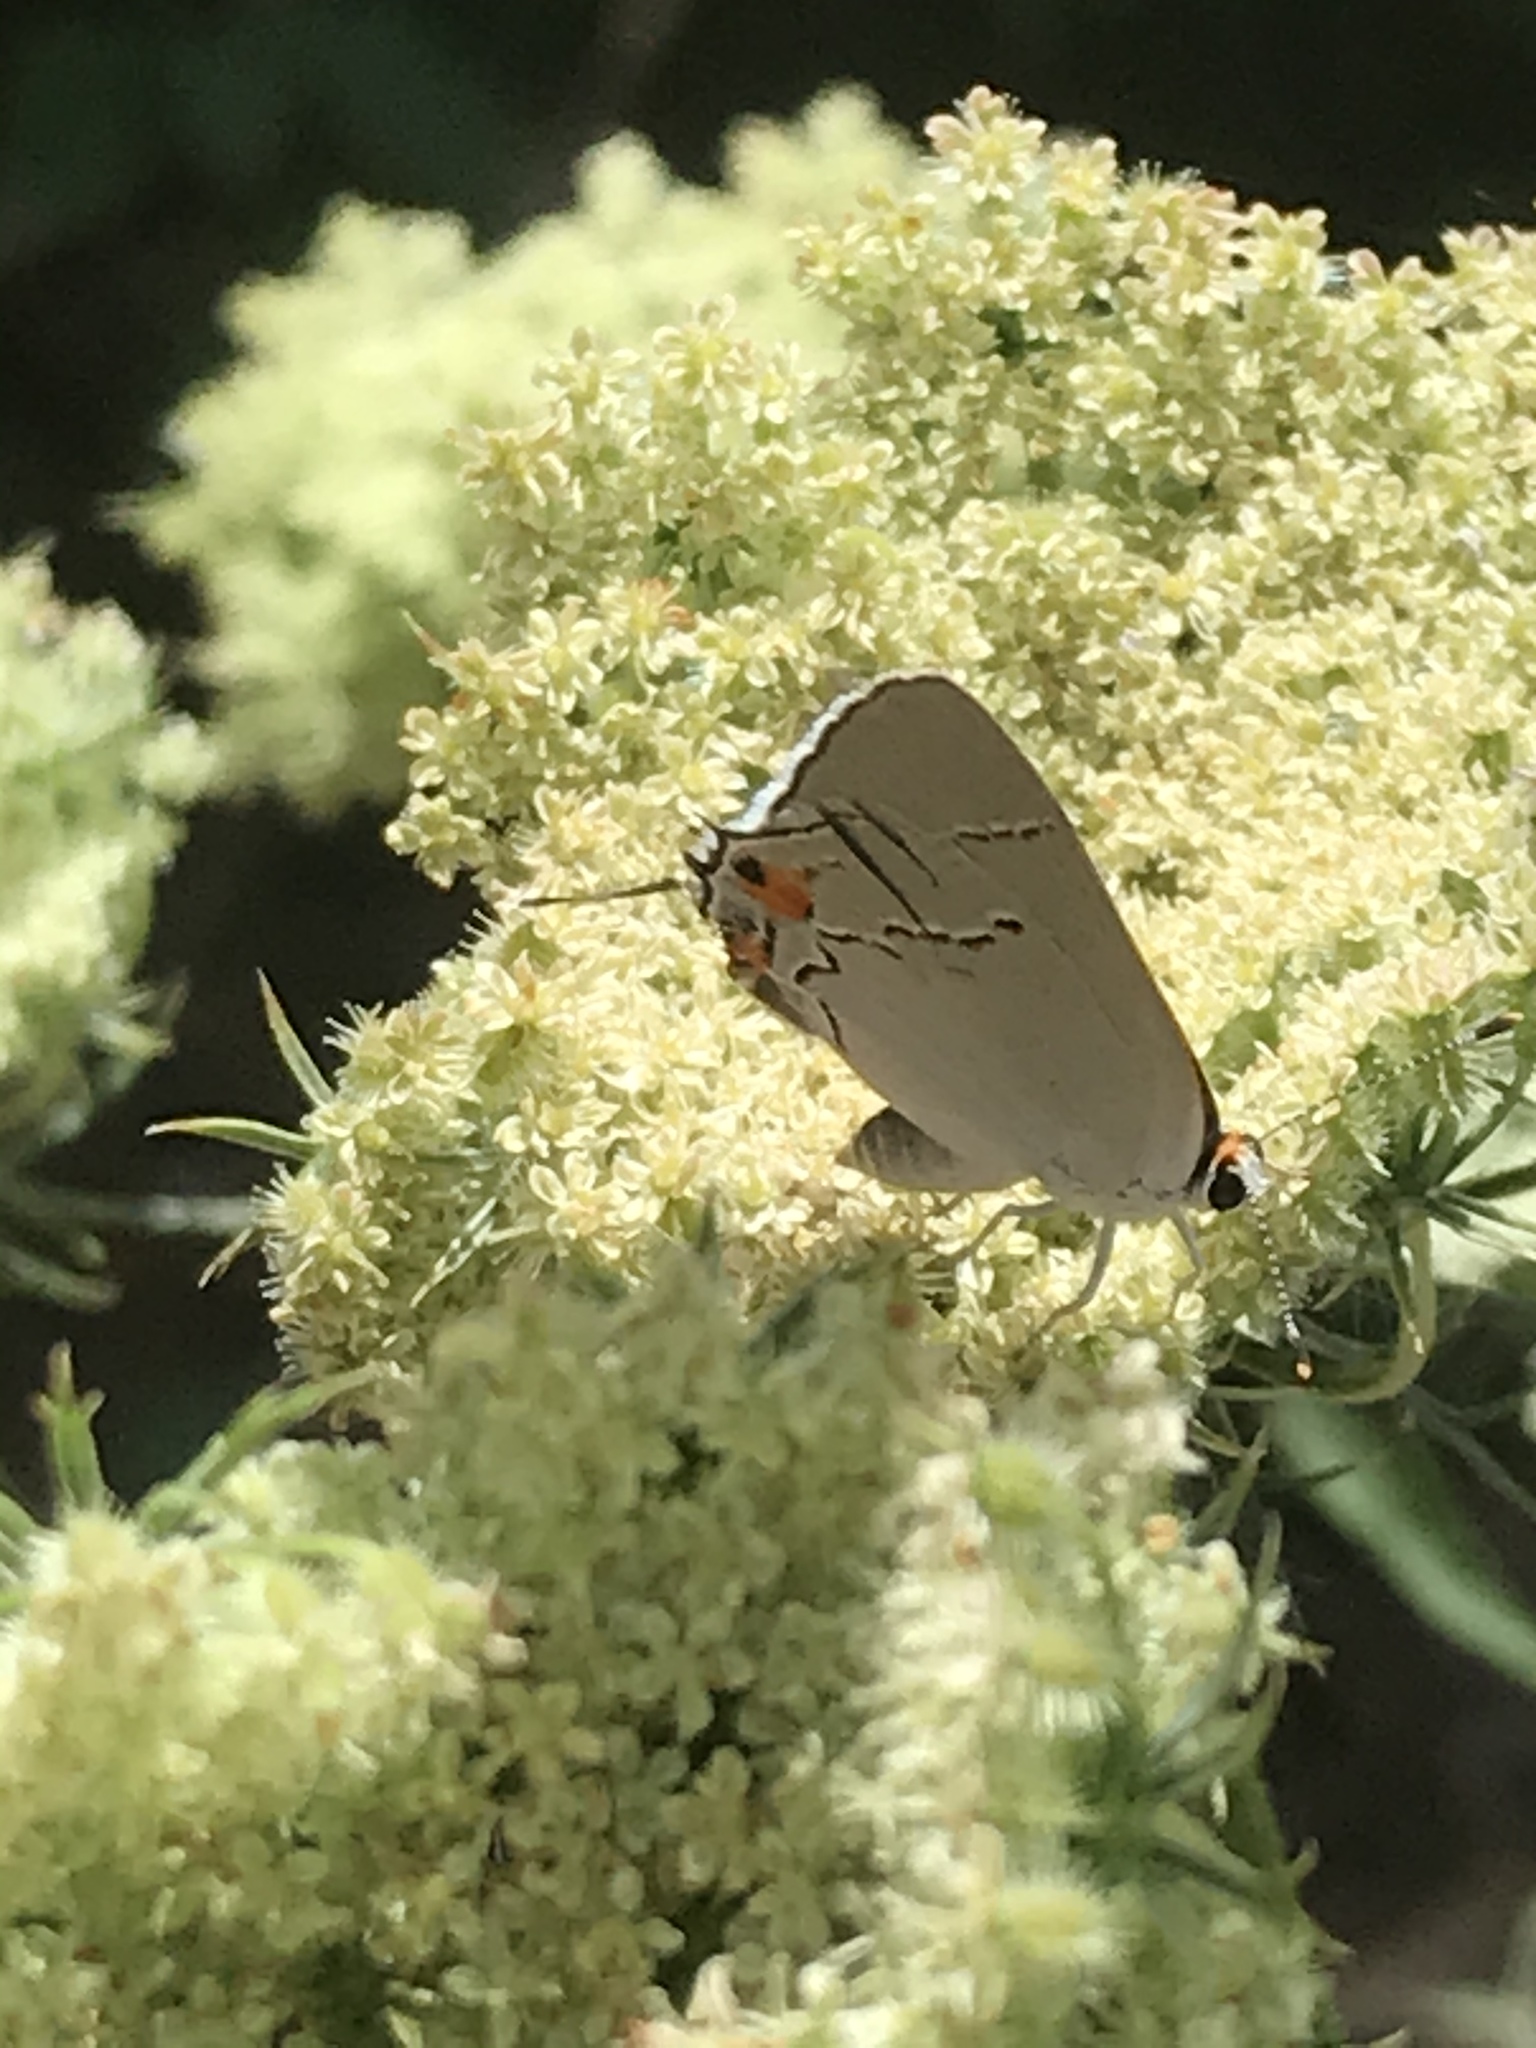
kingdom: Animalia
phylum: Arthropoda
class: Insecta
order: Lepidoptera
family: Lycaenidae
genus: Strymon
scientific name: Strymon melinus
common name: Gray hairstreak
